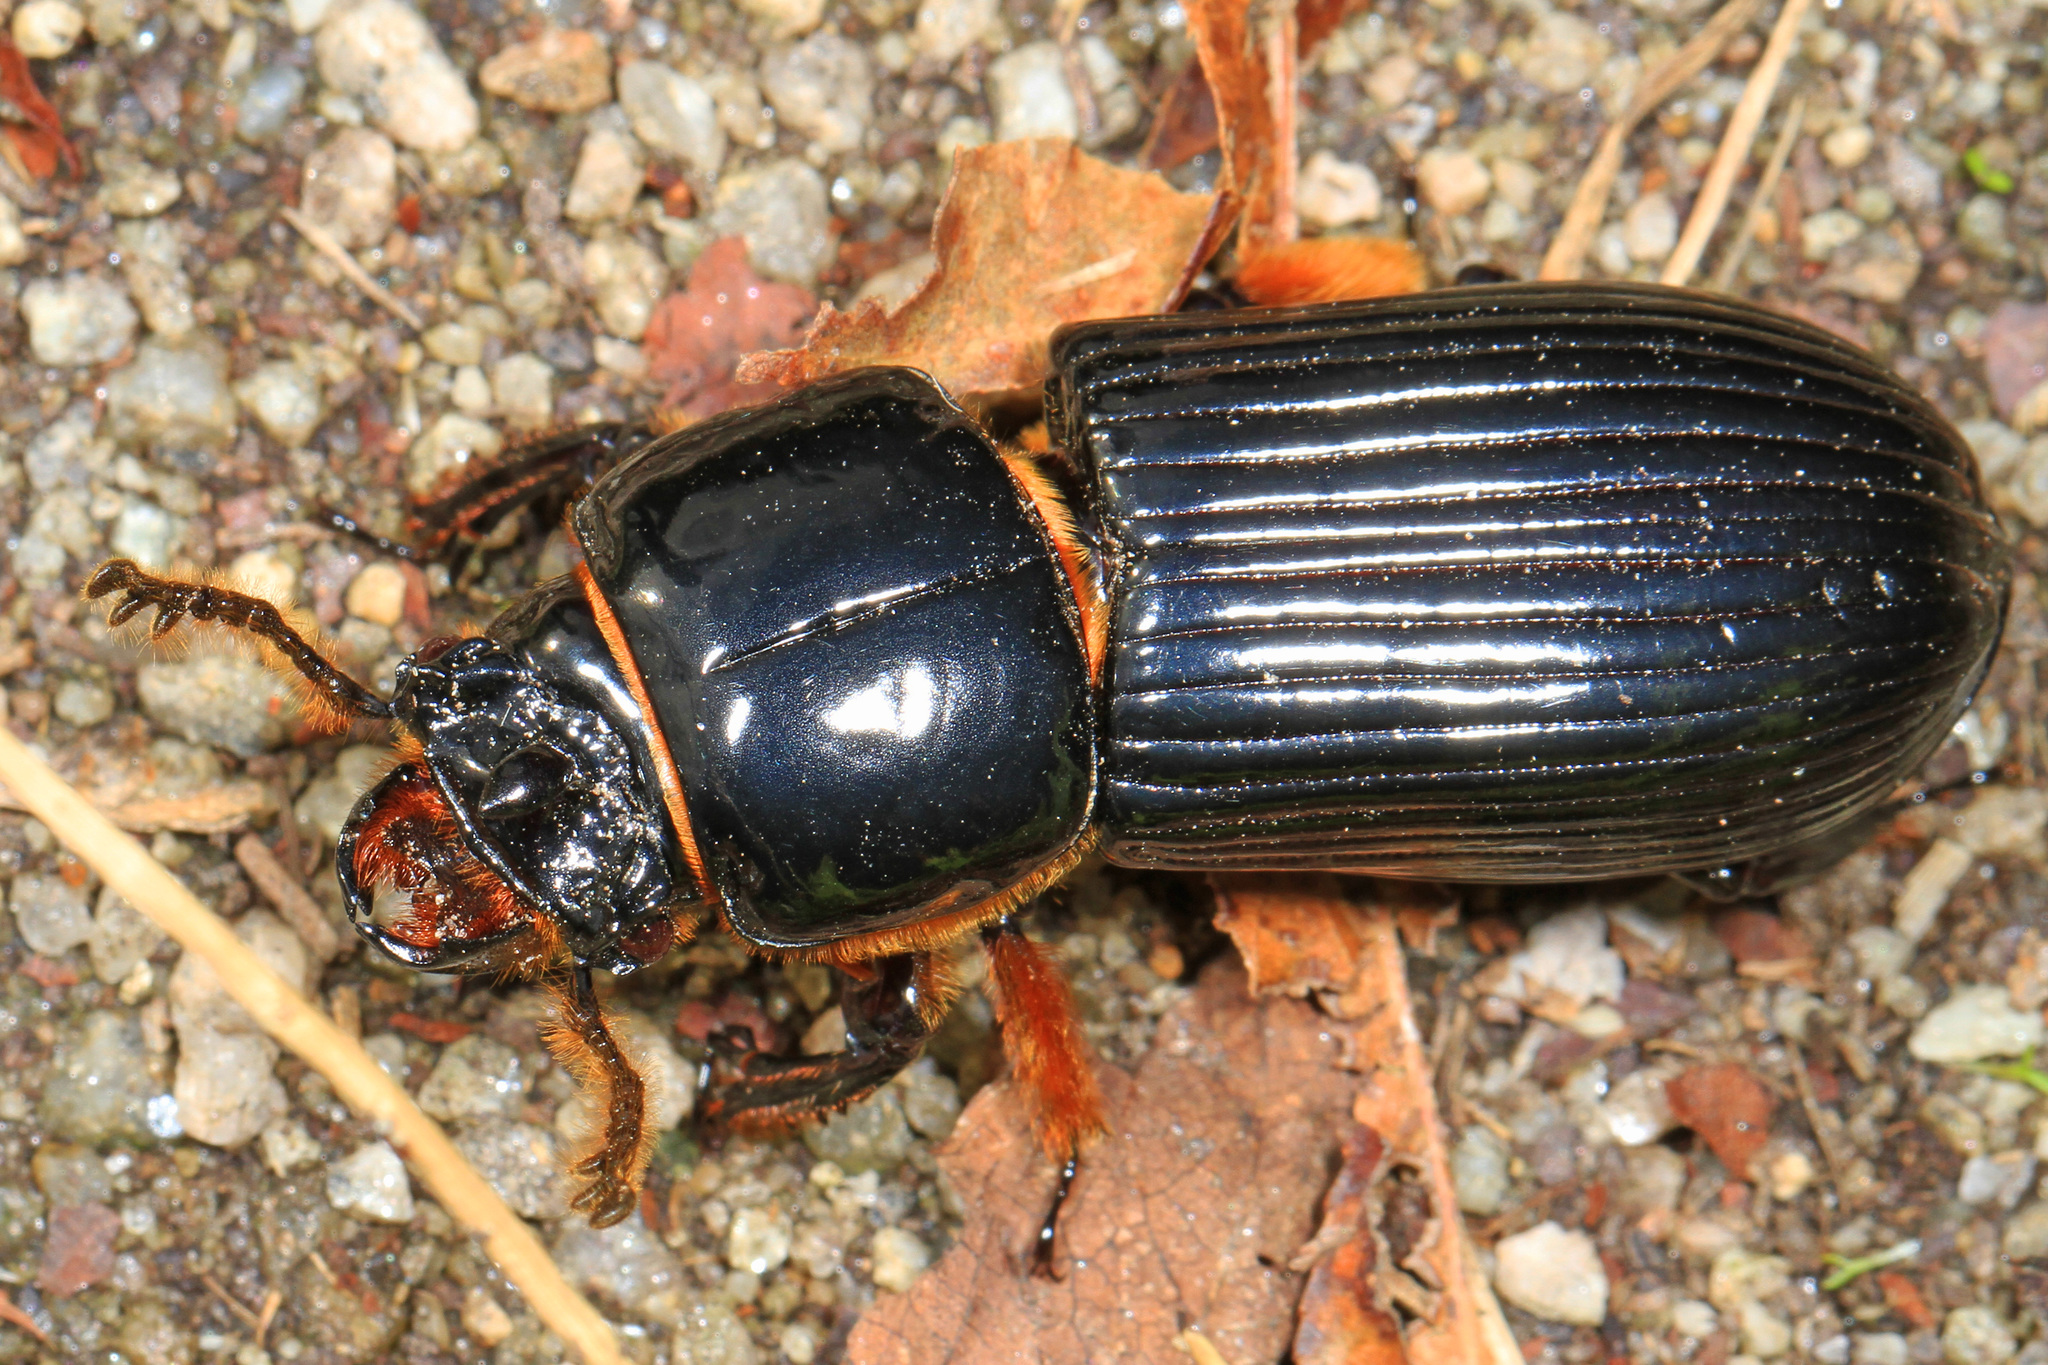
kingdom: Animalia
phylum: Arthropoda
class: Insecta
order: Coleoptera
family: Passalidae
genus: Odontotaenius
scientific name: Odontotaenius disjunctus
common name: Patent leather beetle
